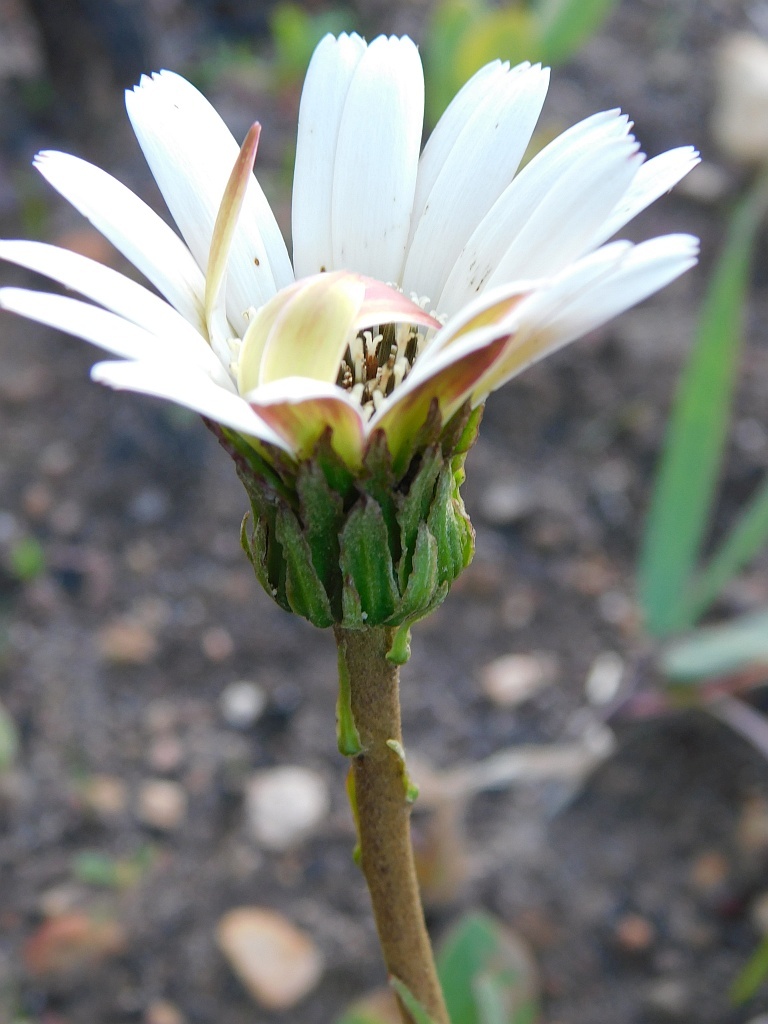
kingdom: Plantae
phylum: Tracheophyta
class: Magnoliopsida
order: Asterales
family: Asteraceae
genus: Gerbera
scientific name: Gerbera linnaei
